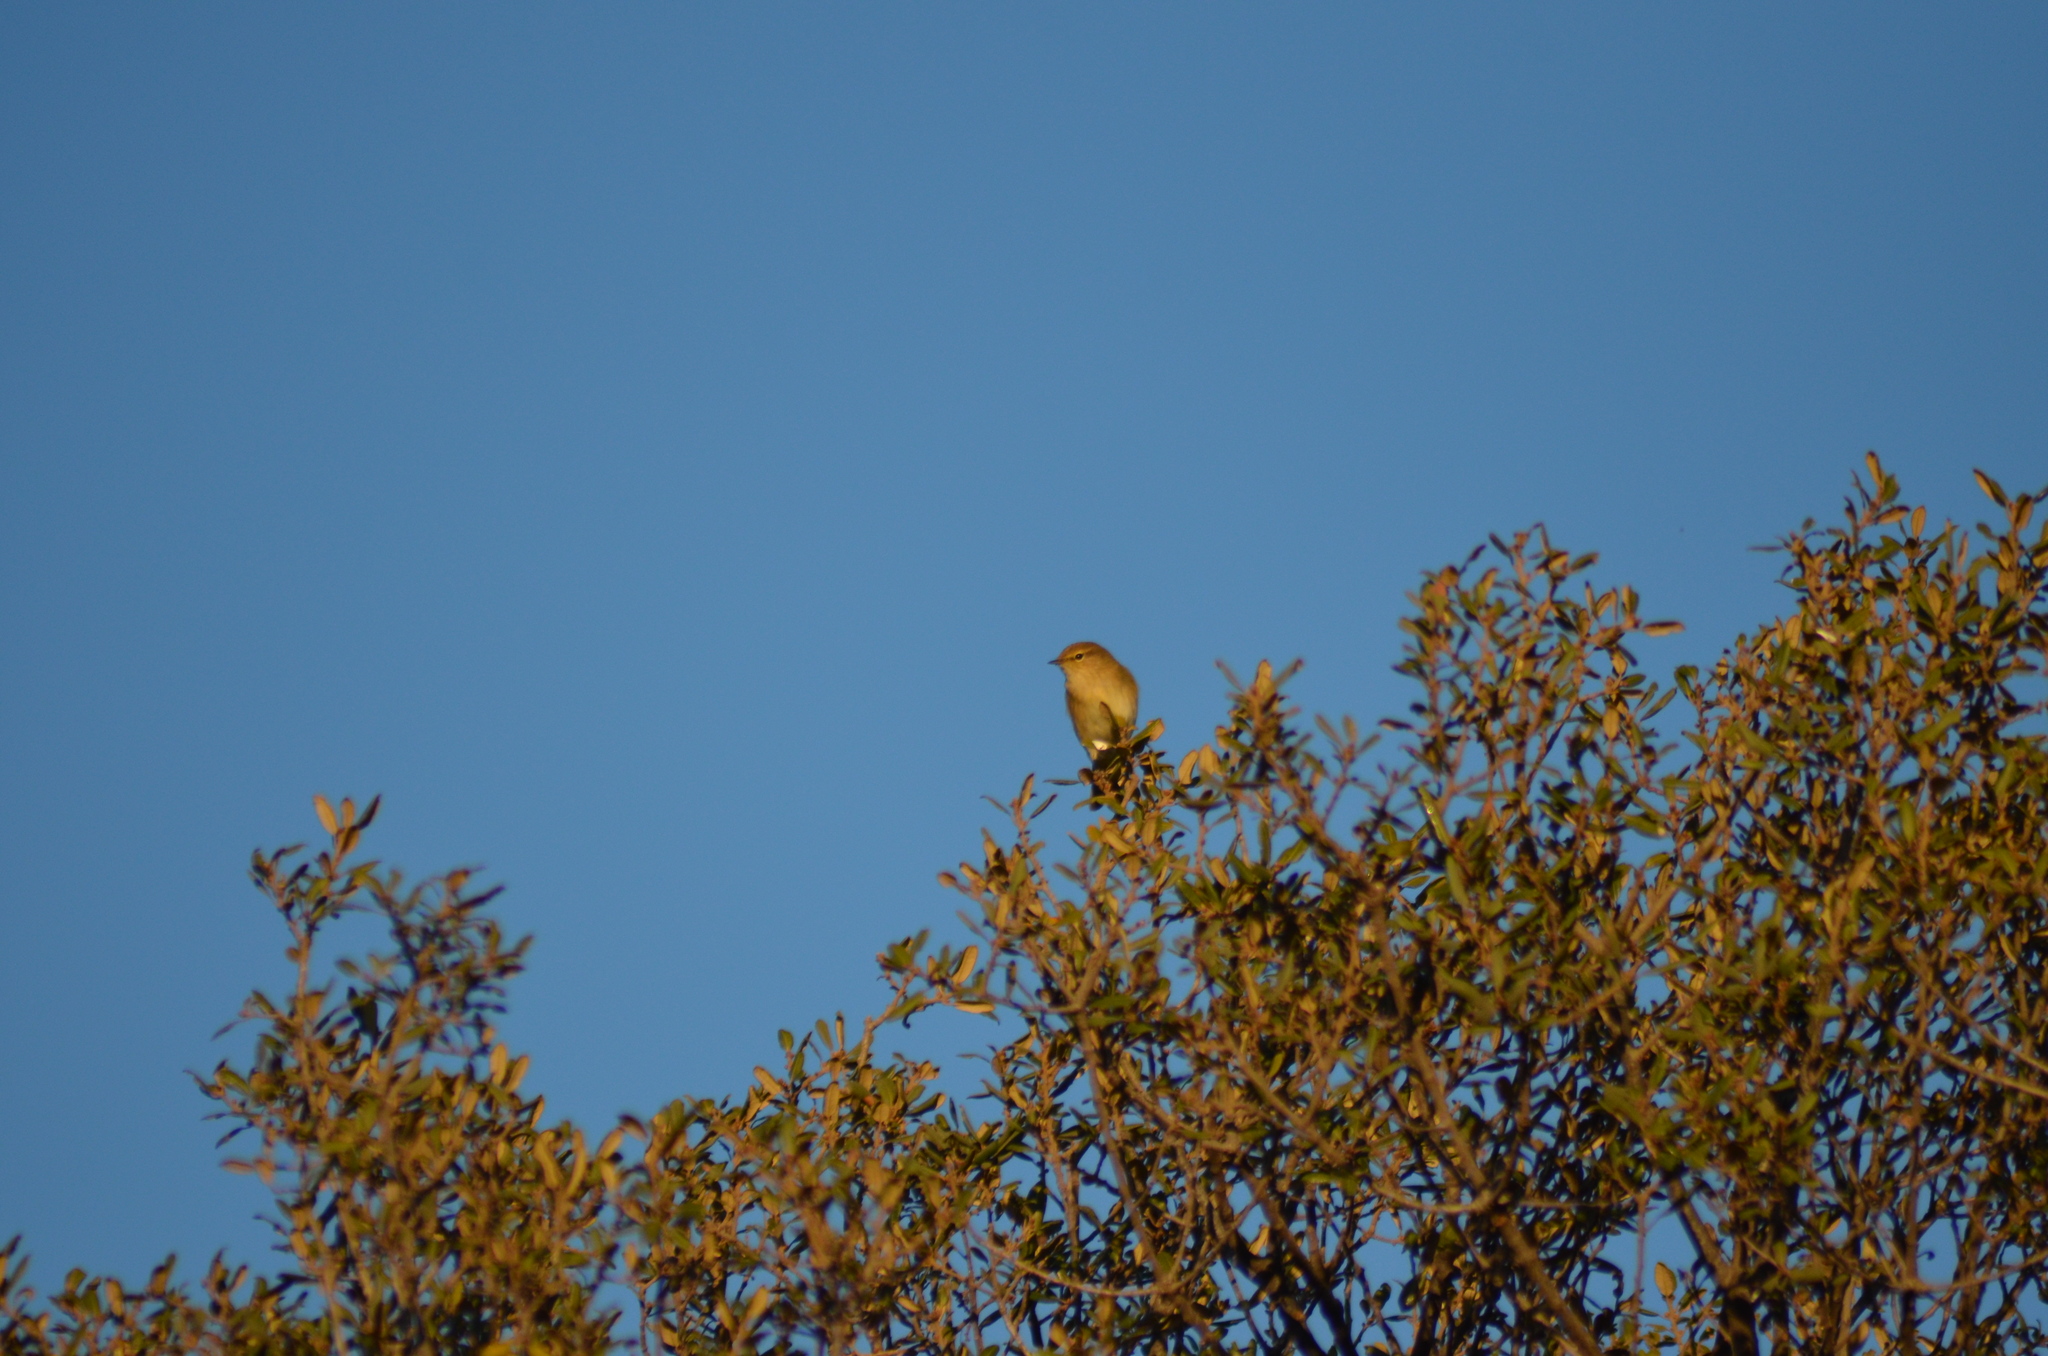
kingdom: Animalia
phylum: Chordata
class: Aves
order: Passeriformes
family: Phylloscopidae
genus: Phylloscopus
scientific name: Phylloscopus collybita
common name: Common chiffchaff
